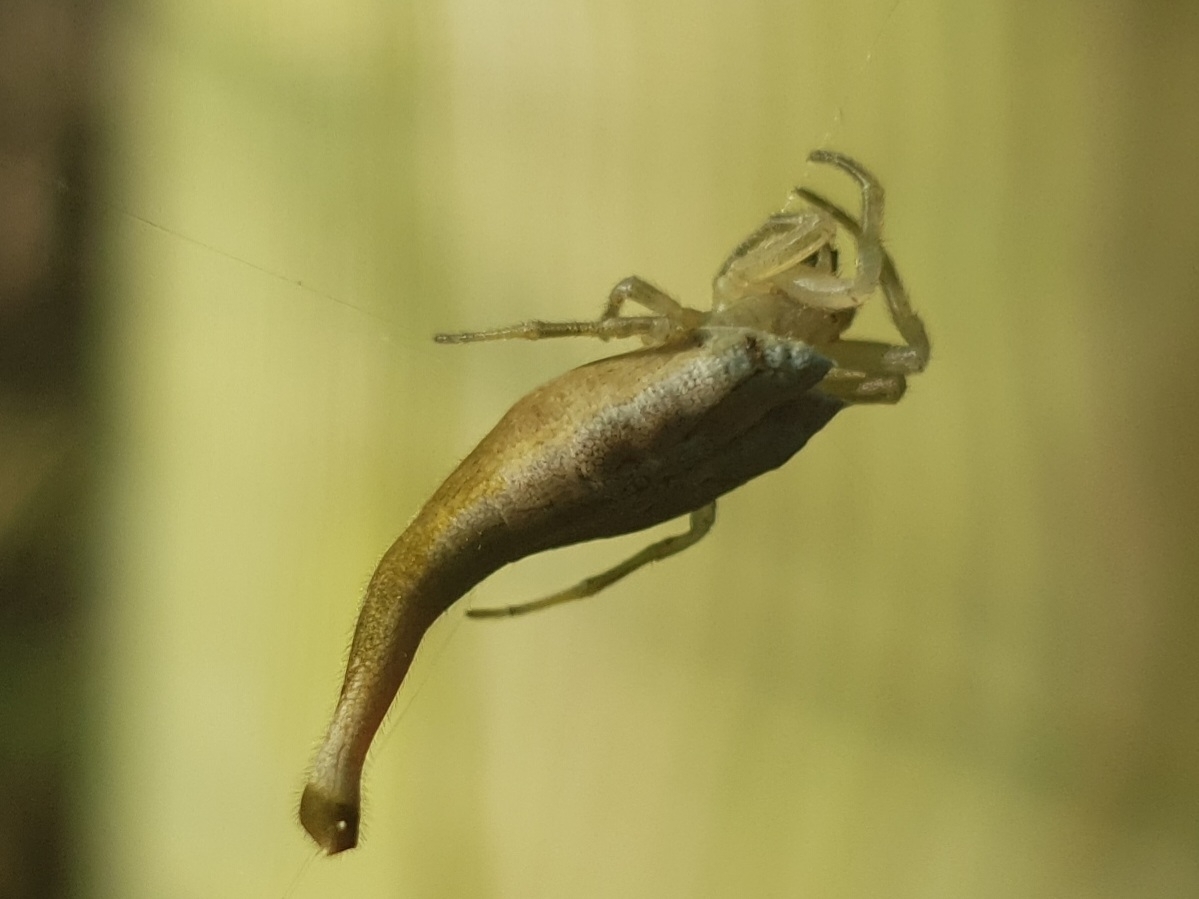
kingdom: Animalia
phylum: Arthropoda
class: Arachnida
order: Araneae
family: Araneidae
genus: Arachnura
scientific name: Arachnura feredayi
